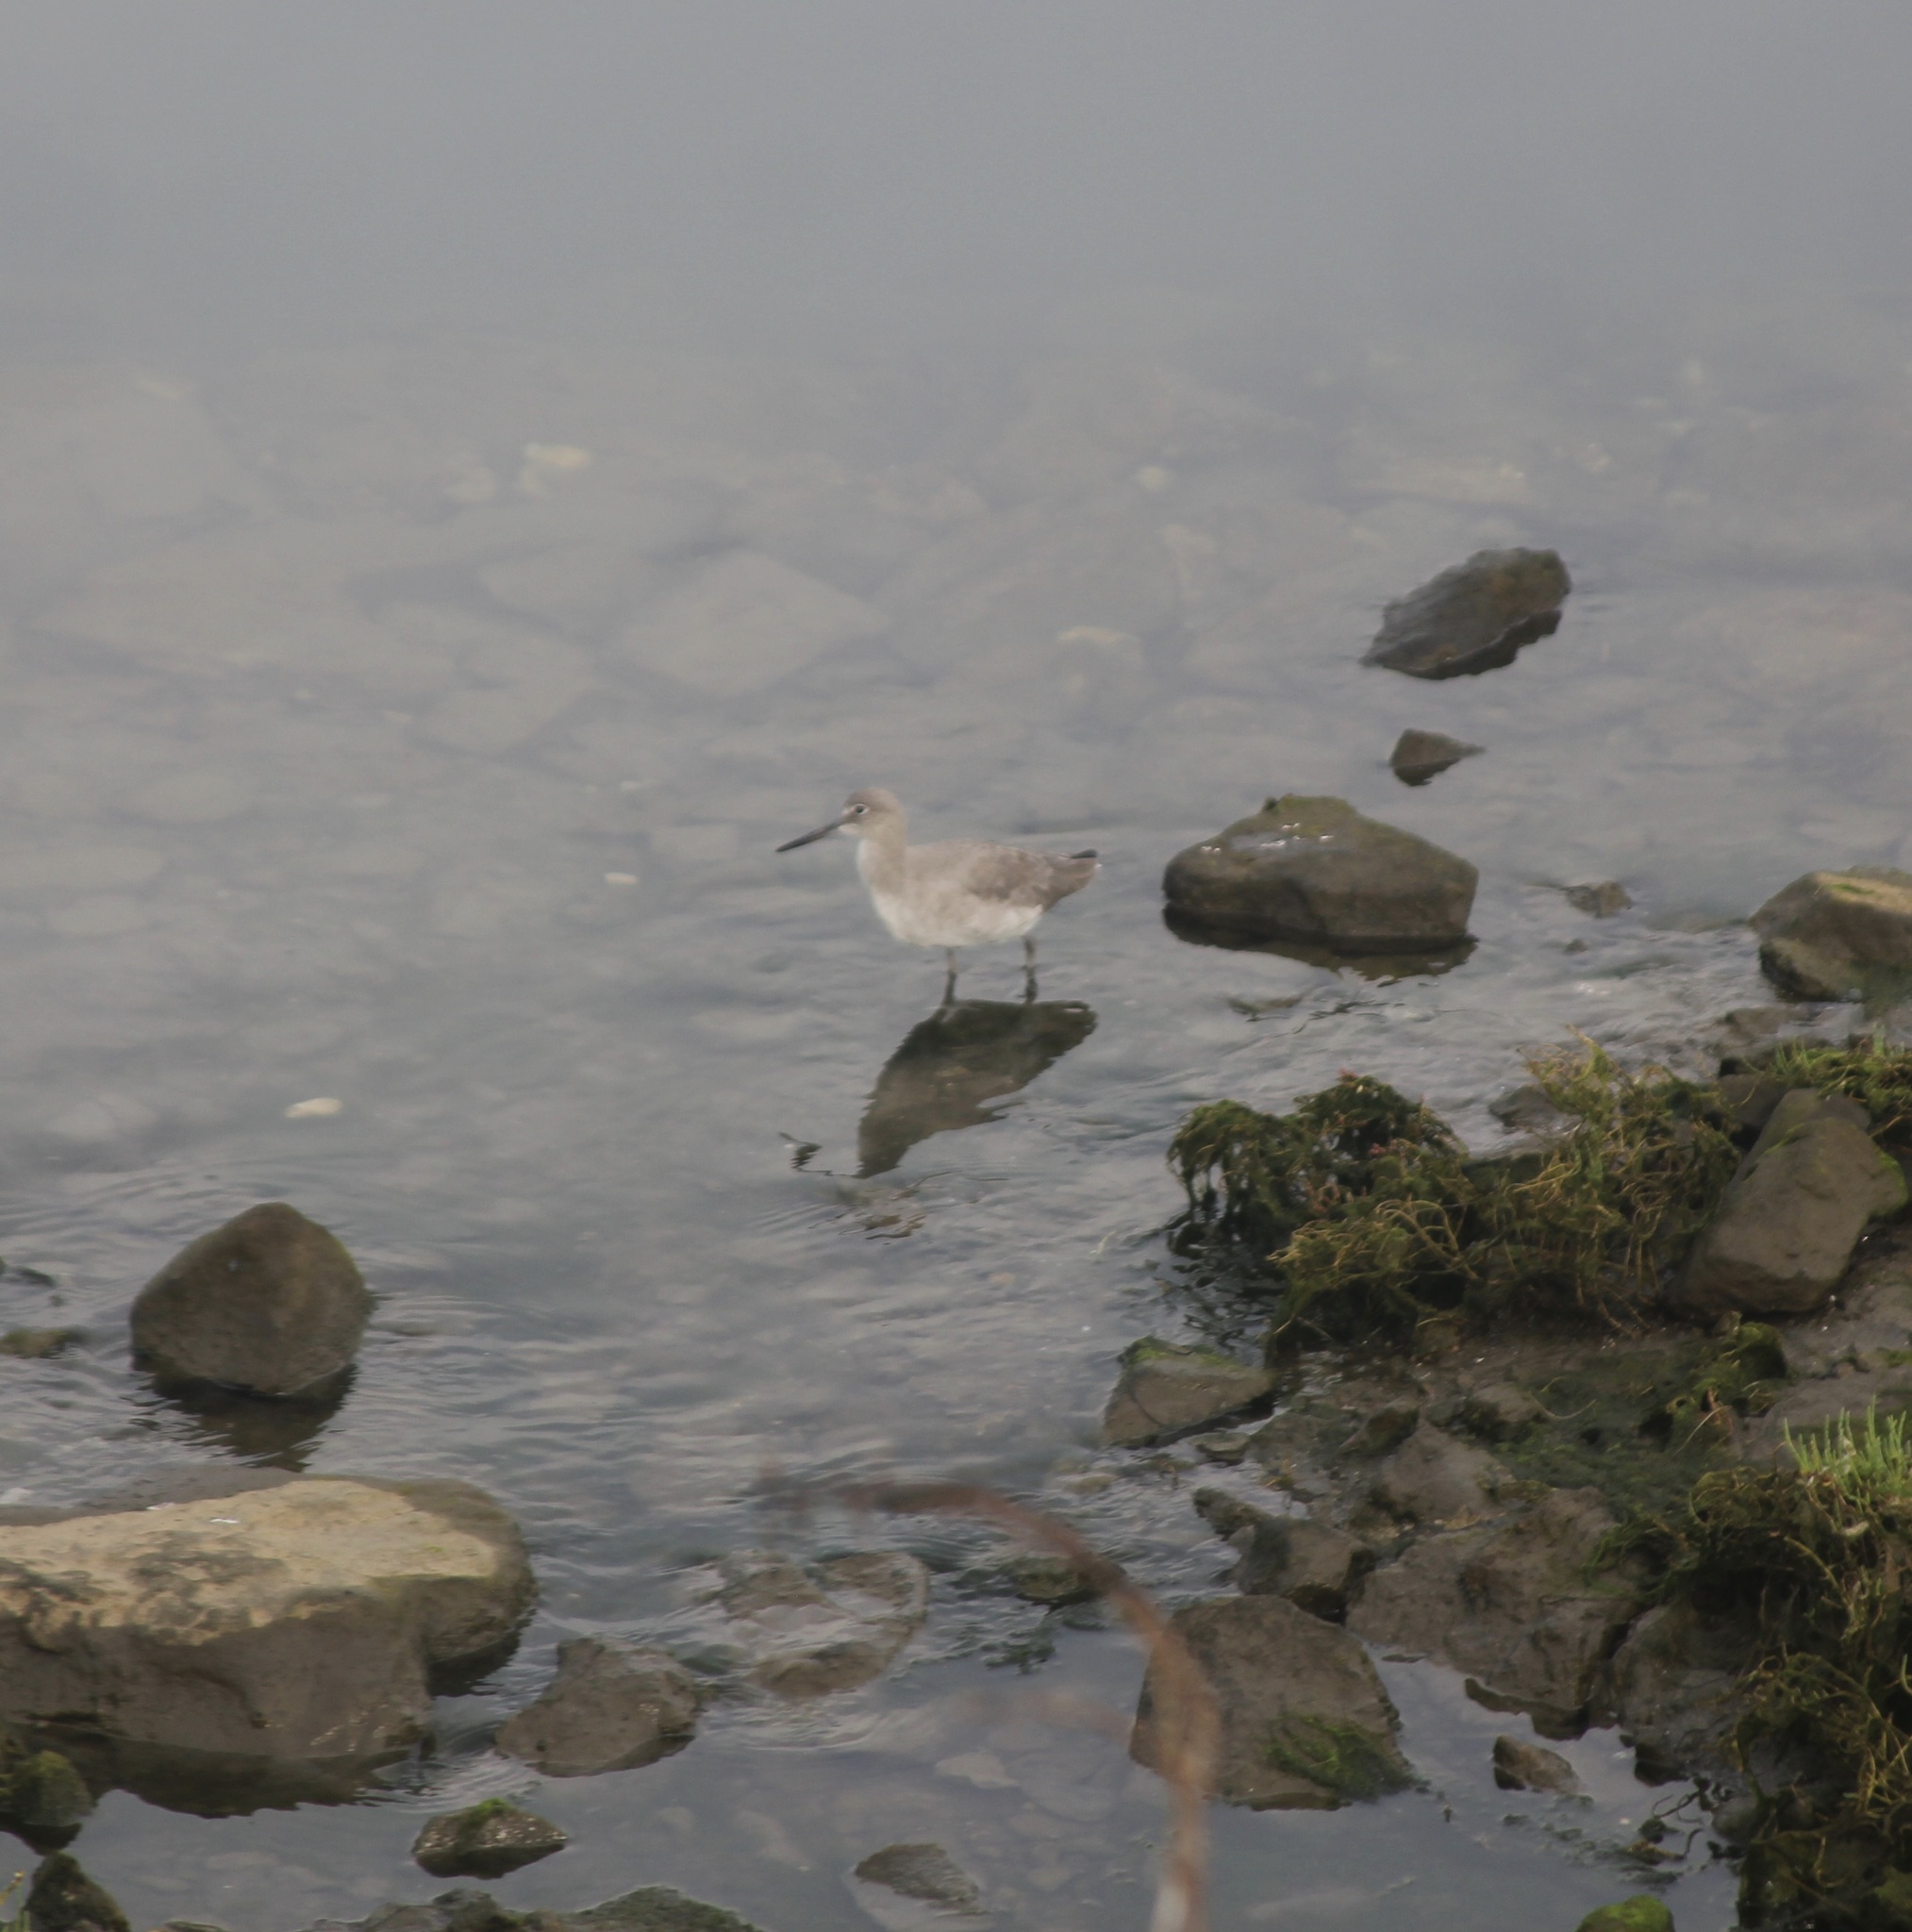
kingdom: Animalia
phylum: Chordata
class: Aves
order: Charadriiformes
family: Scolopacidae
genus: Tringa
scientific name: Tringa semipalmata
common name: Willet
